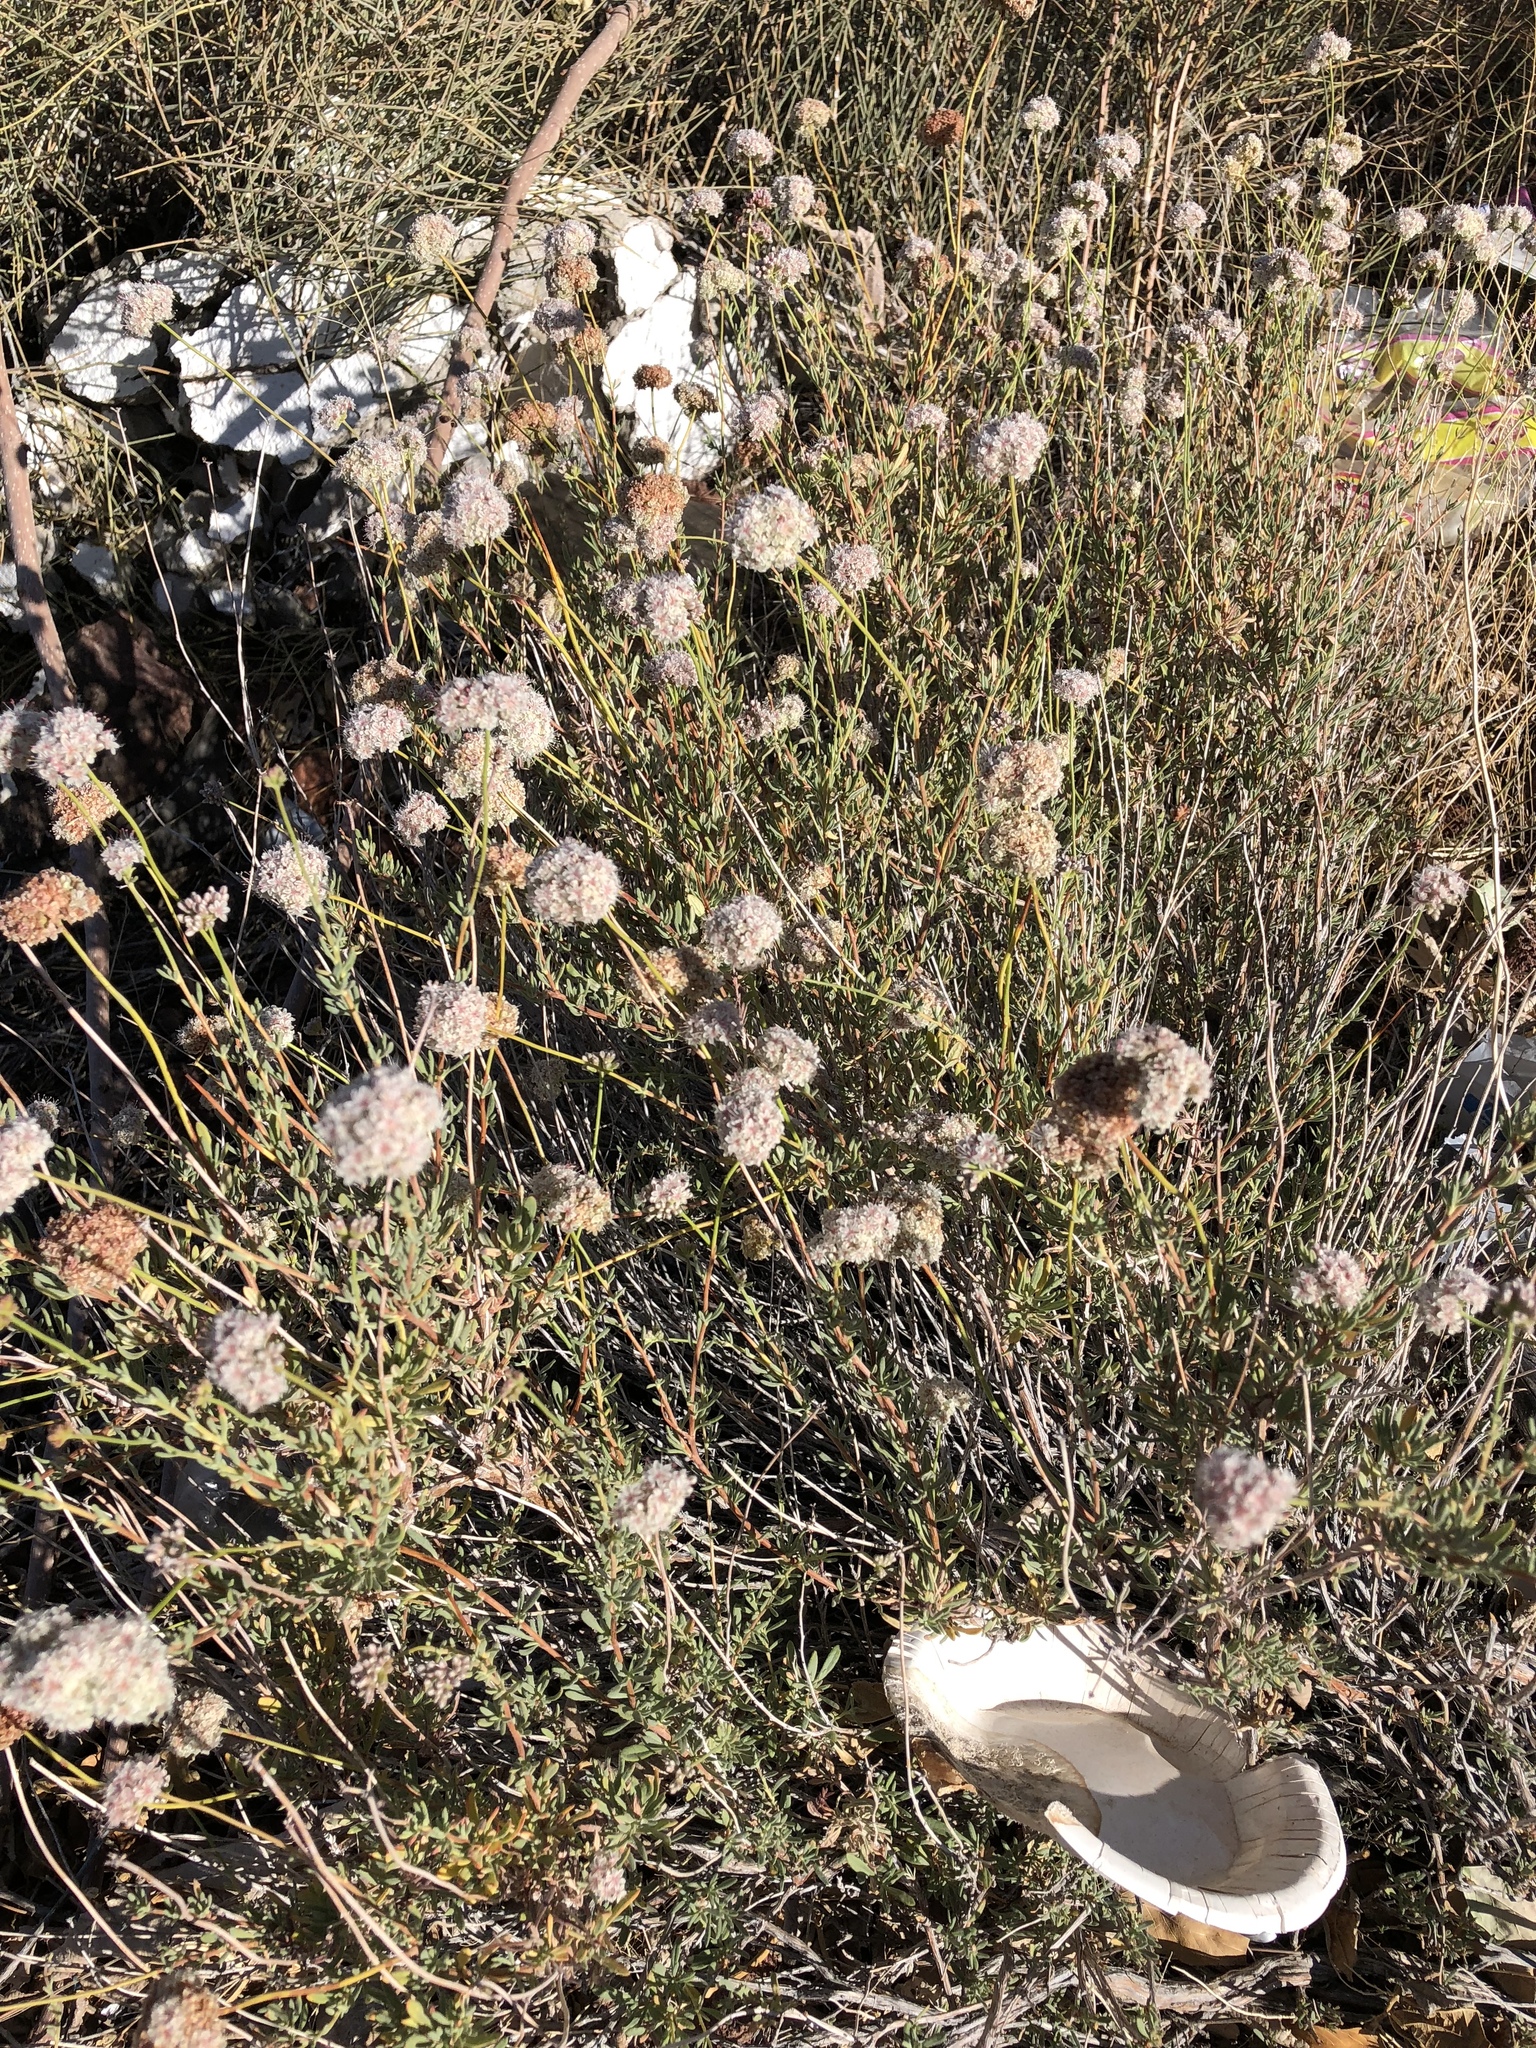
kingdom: Plantae
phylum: Tracheophyta
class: Magnoliopsida
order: Caryophyllales
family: Polygonaceae
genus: Eriogonum
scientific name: Eriogonum fasciculatum
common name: California wild buckwheat
